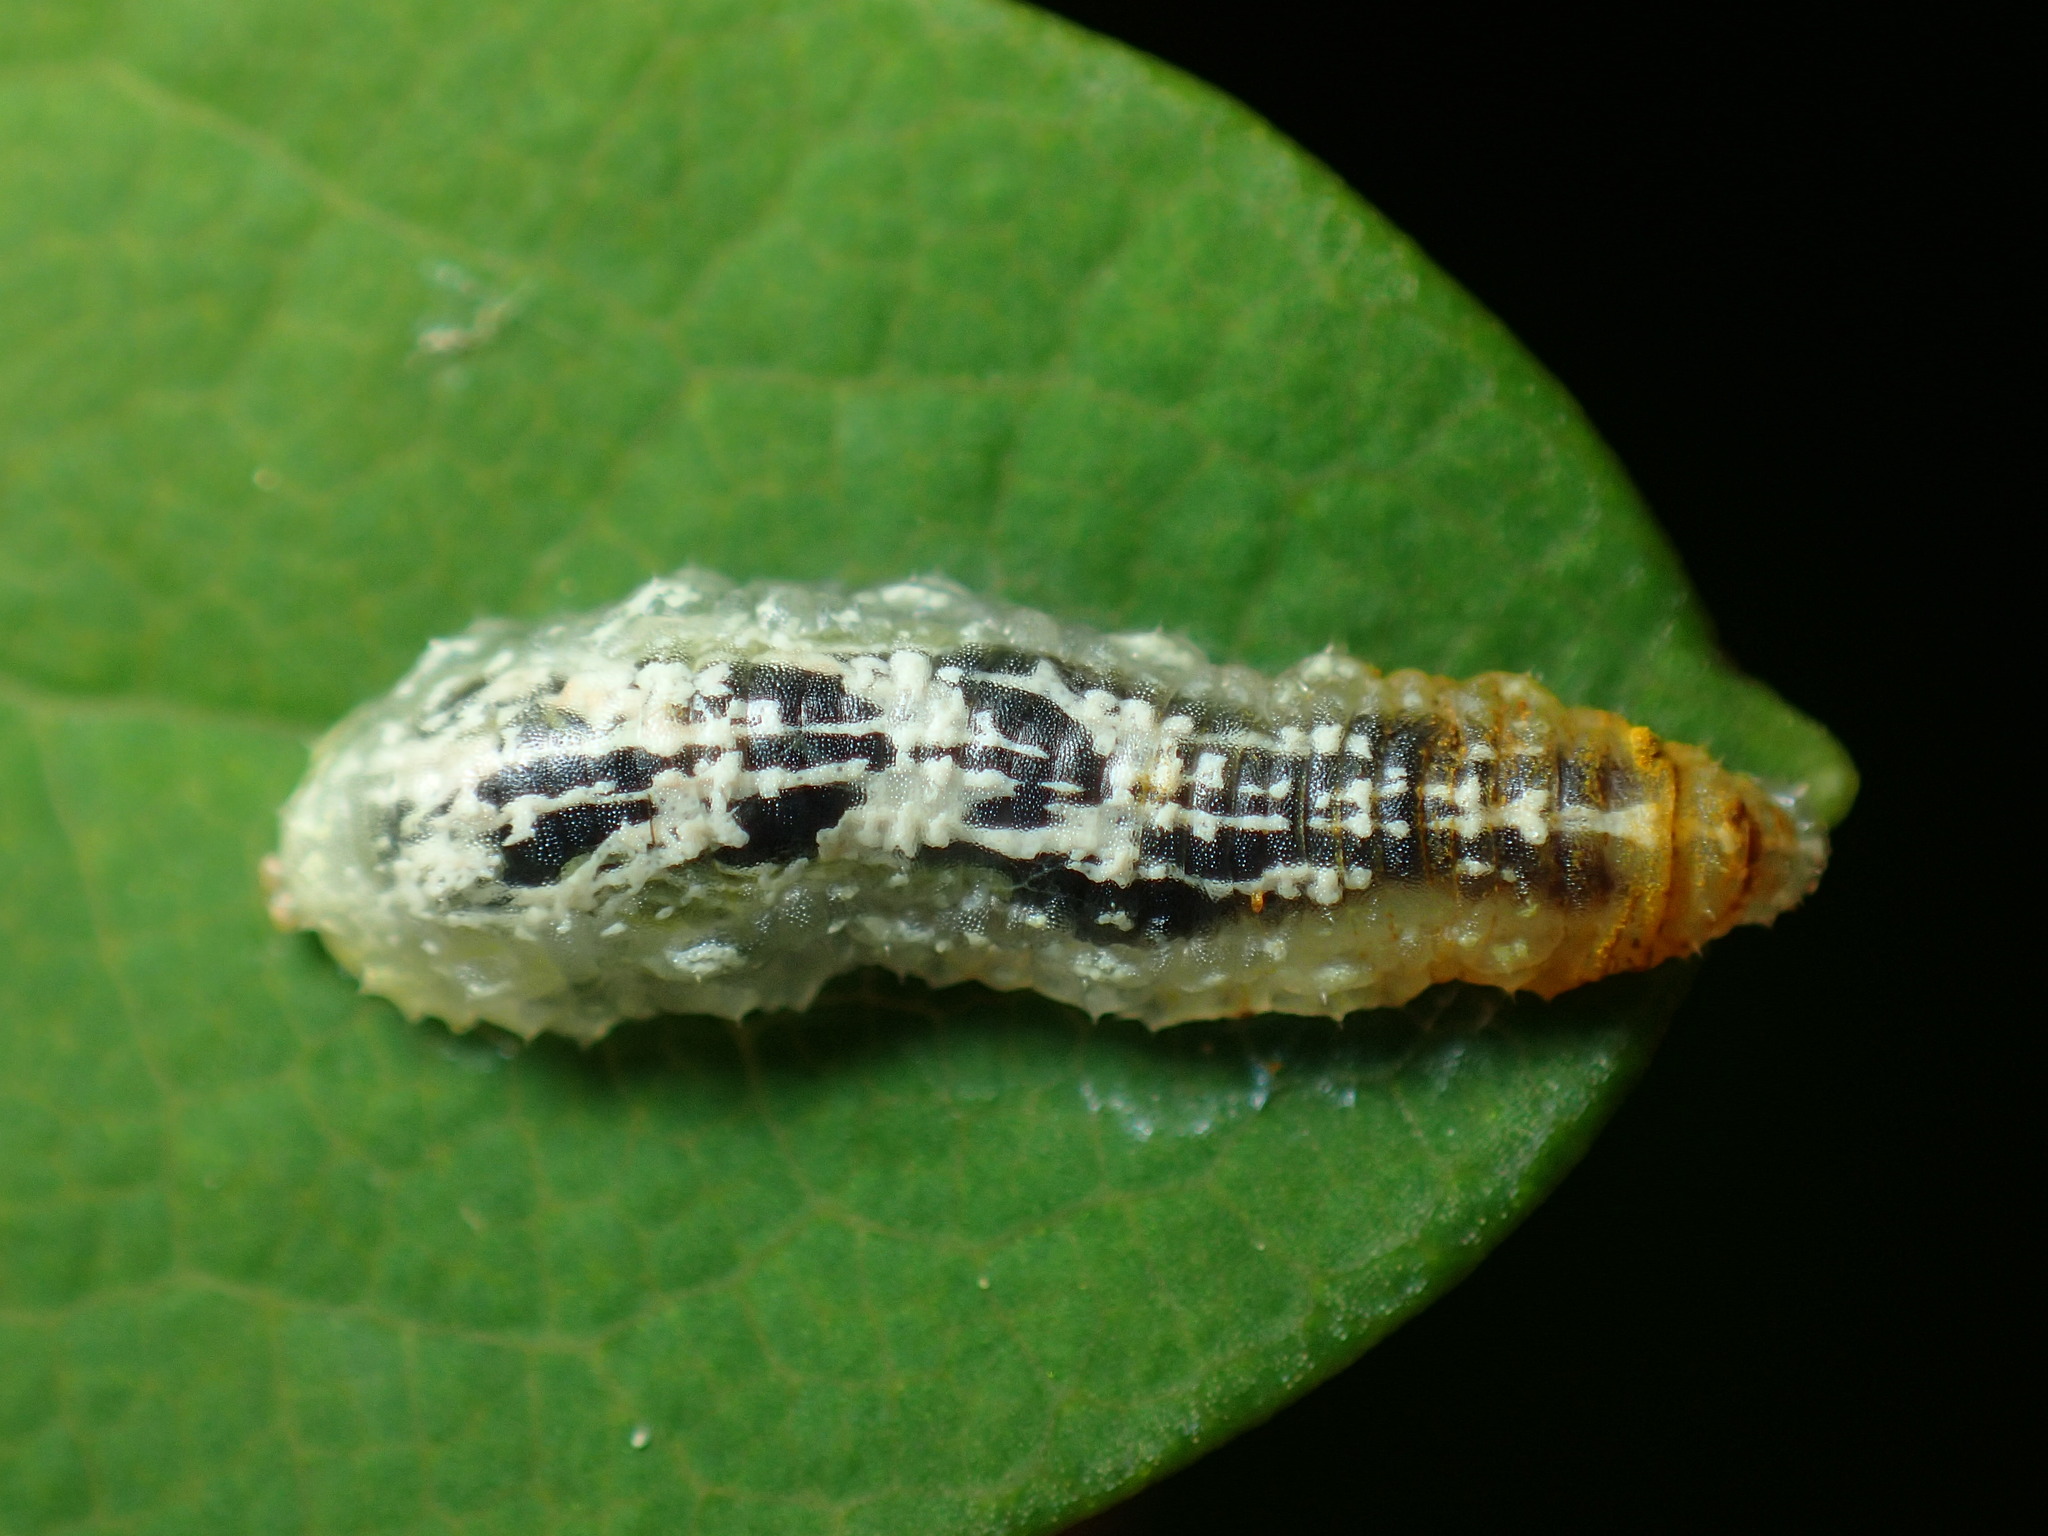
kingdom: Animalia
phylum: Arthropoda
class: Insecta
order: Diptera
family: Syrphidae
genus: Syrphus
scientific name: Syrphus
